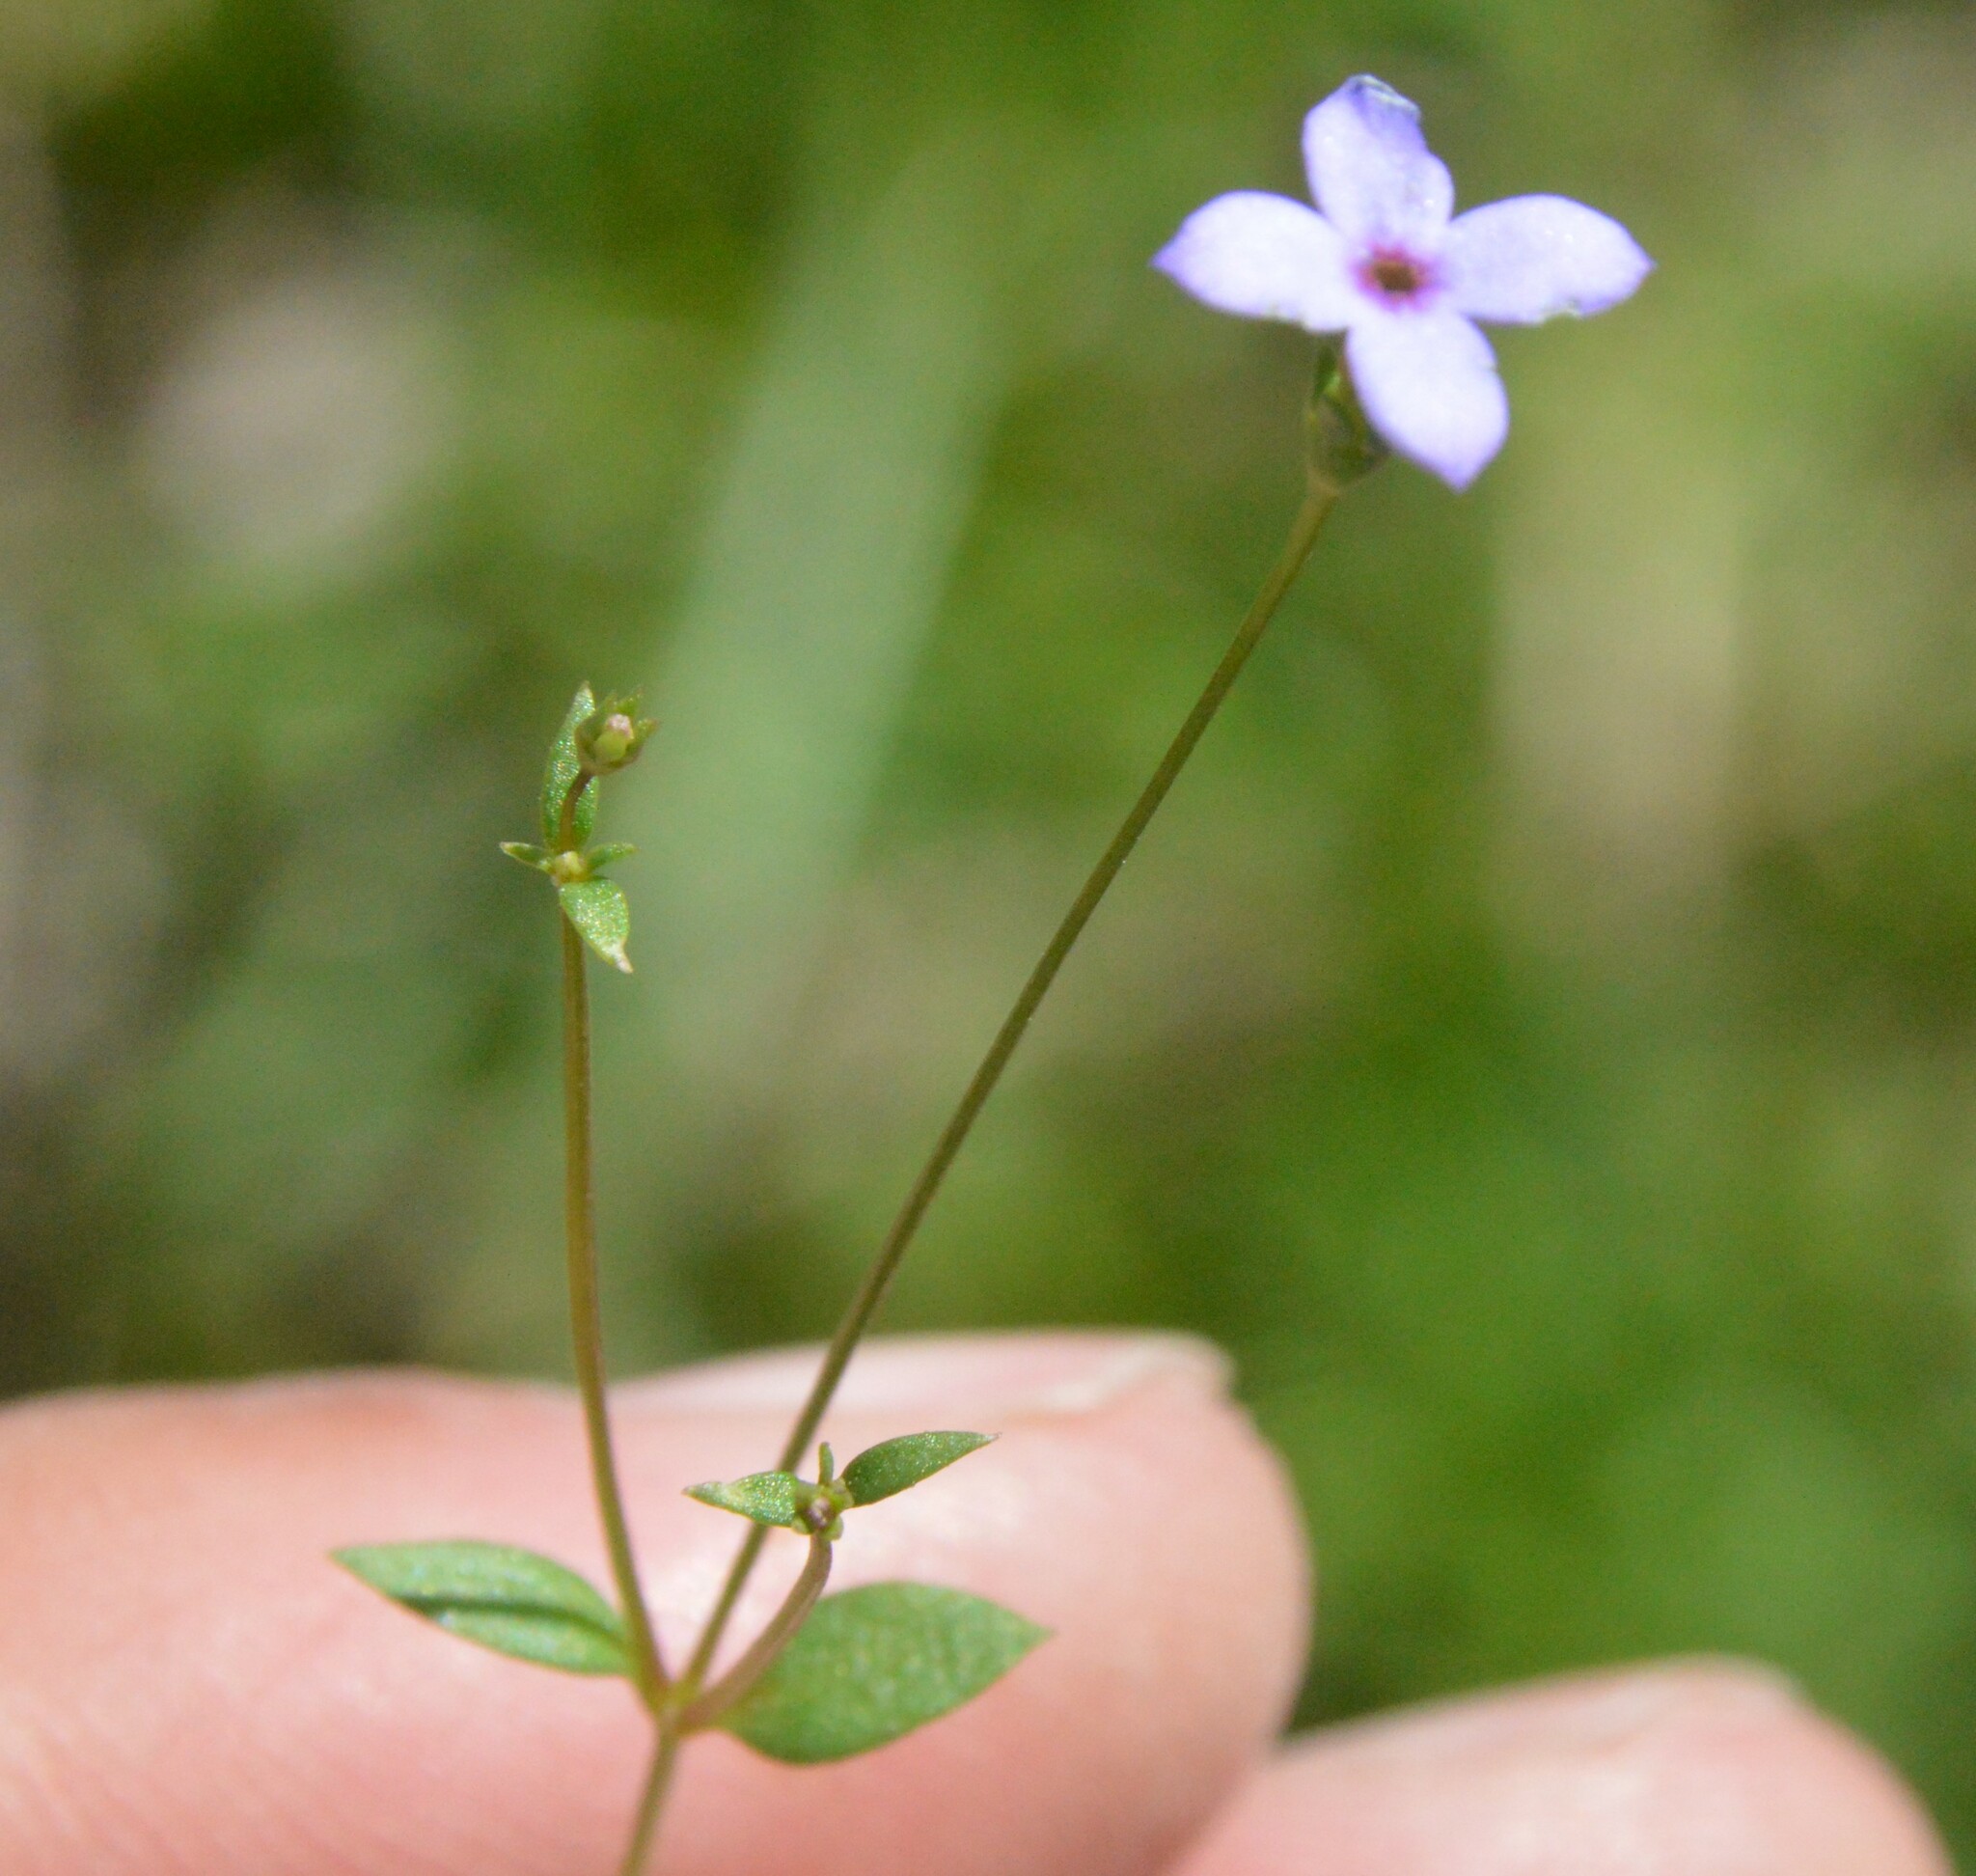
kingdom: Plantae
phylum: Tracheophyta
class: Magnoliopsida
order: Gentianales
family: Rubiaceae
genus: Houstonia
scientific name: Houstonia pusilla
